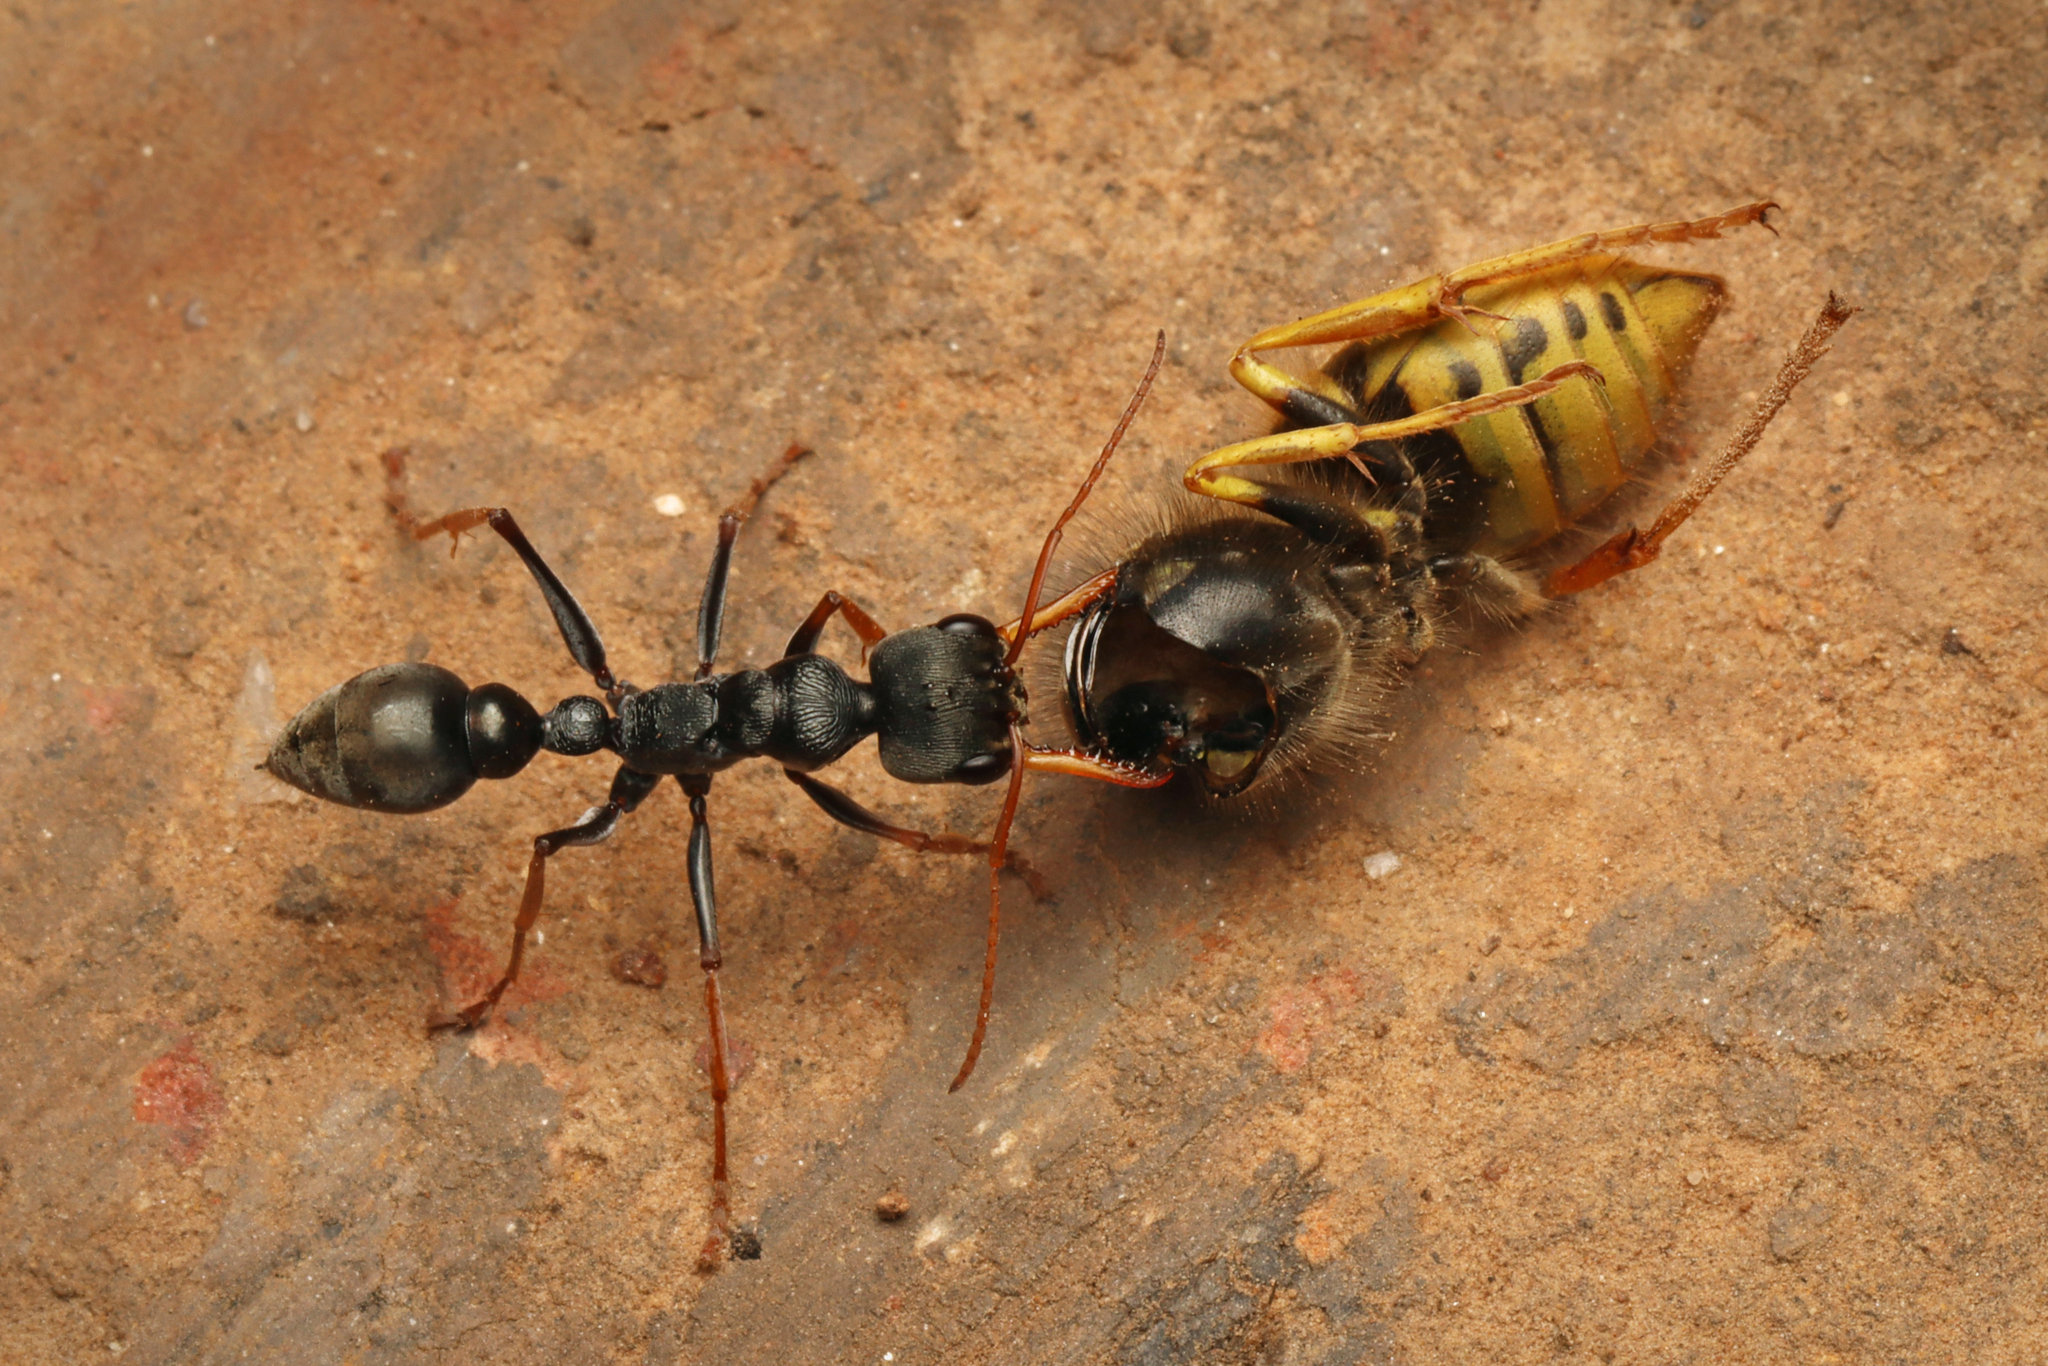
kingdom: Animalia
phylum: Arthropoda
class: Insecta
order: Hymenoptera
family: Formicidae
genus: Myrmecia
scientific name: Myrmecia pilosula
